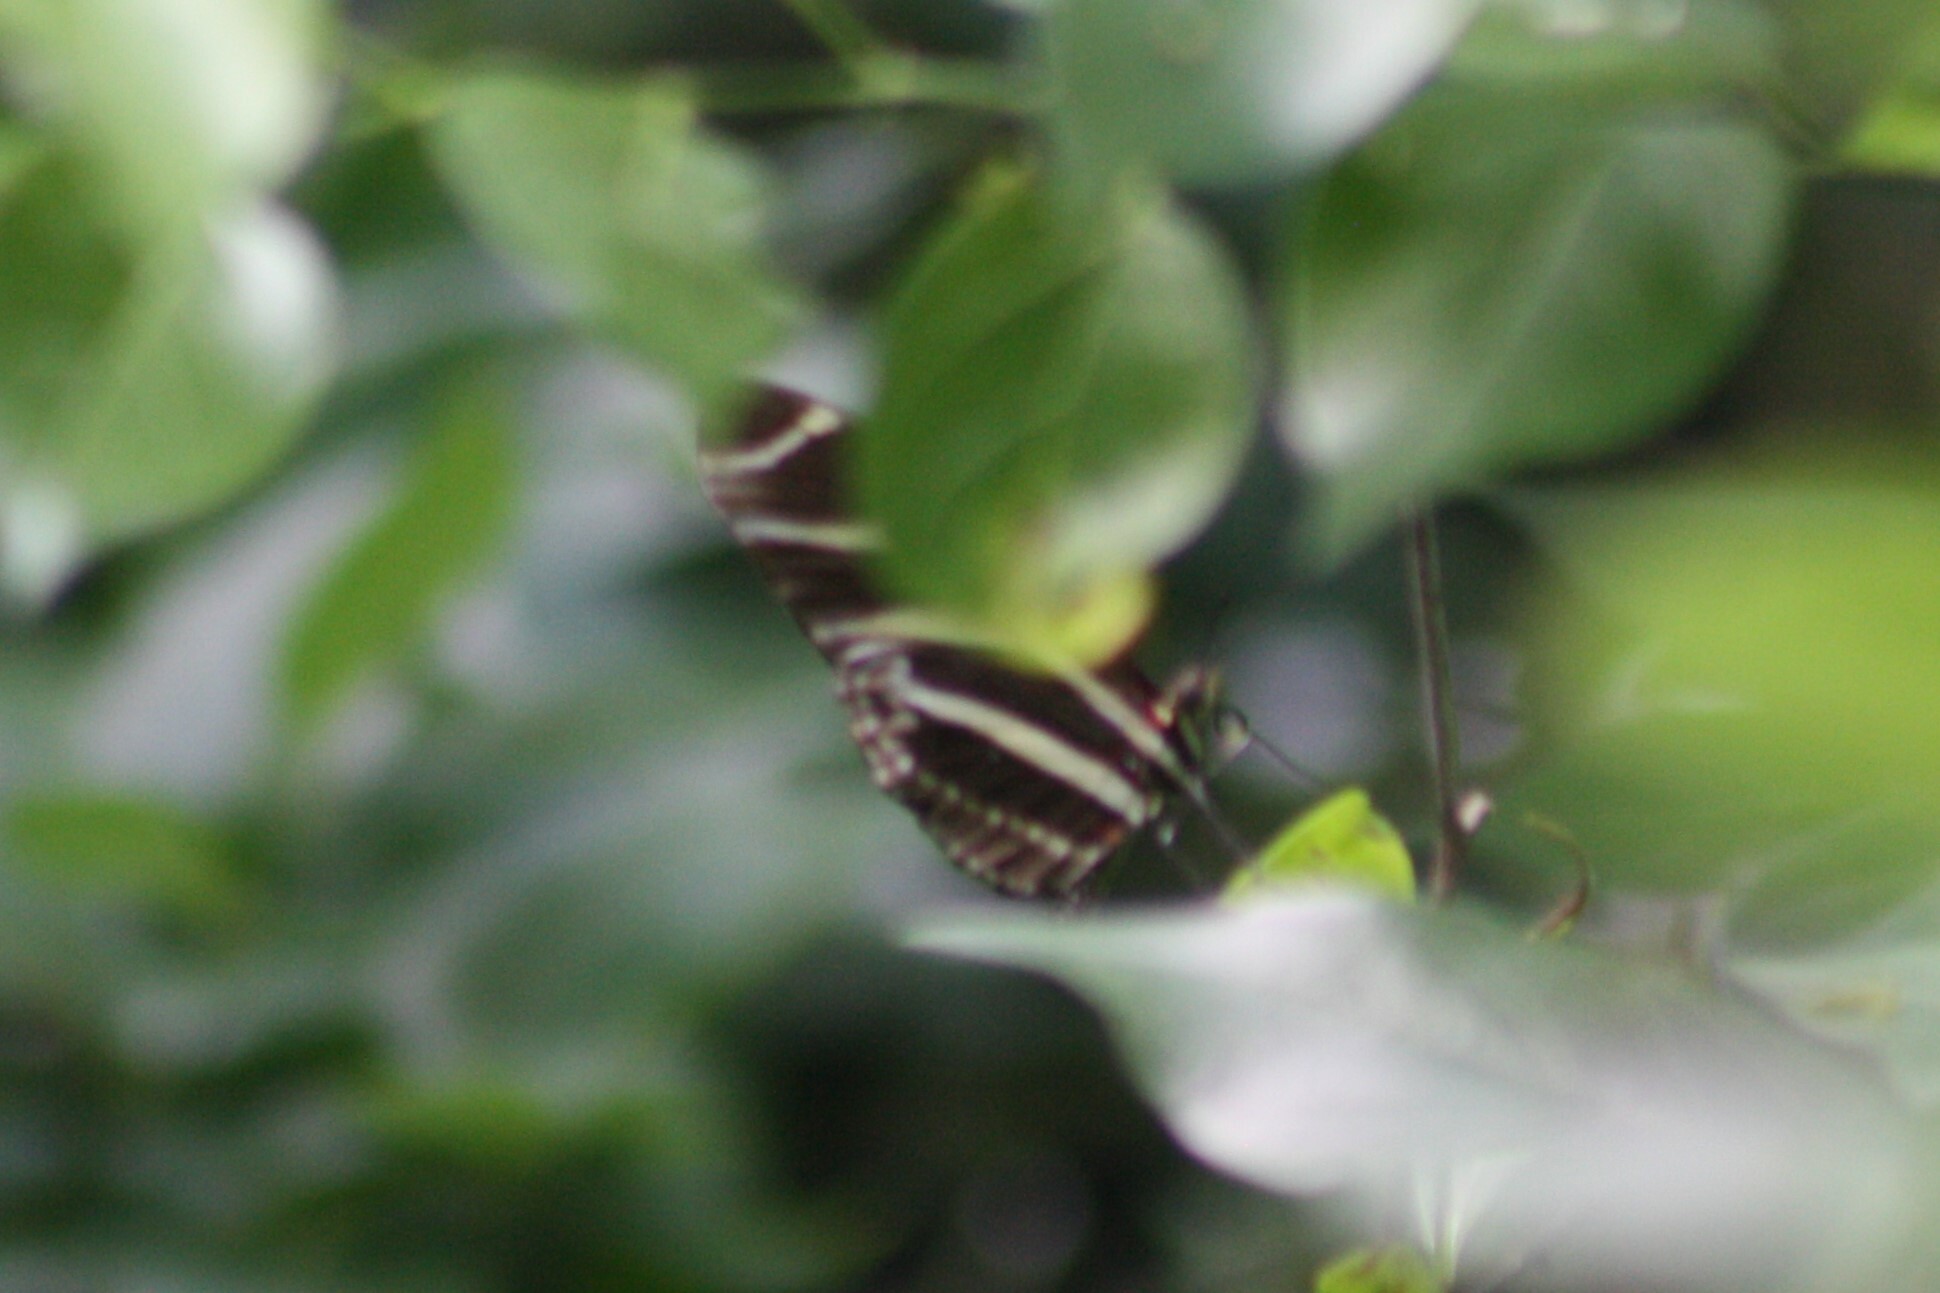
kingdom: Animalia
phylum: Arthropoda
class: Insecta
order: Lepidoptera
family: Nymphalidae
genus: Heliconius
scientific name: Heliconius charithonia
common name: Zebra long wing
